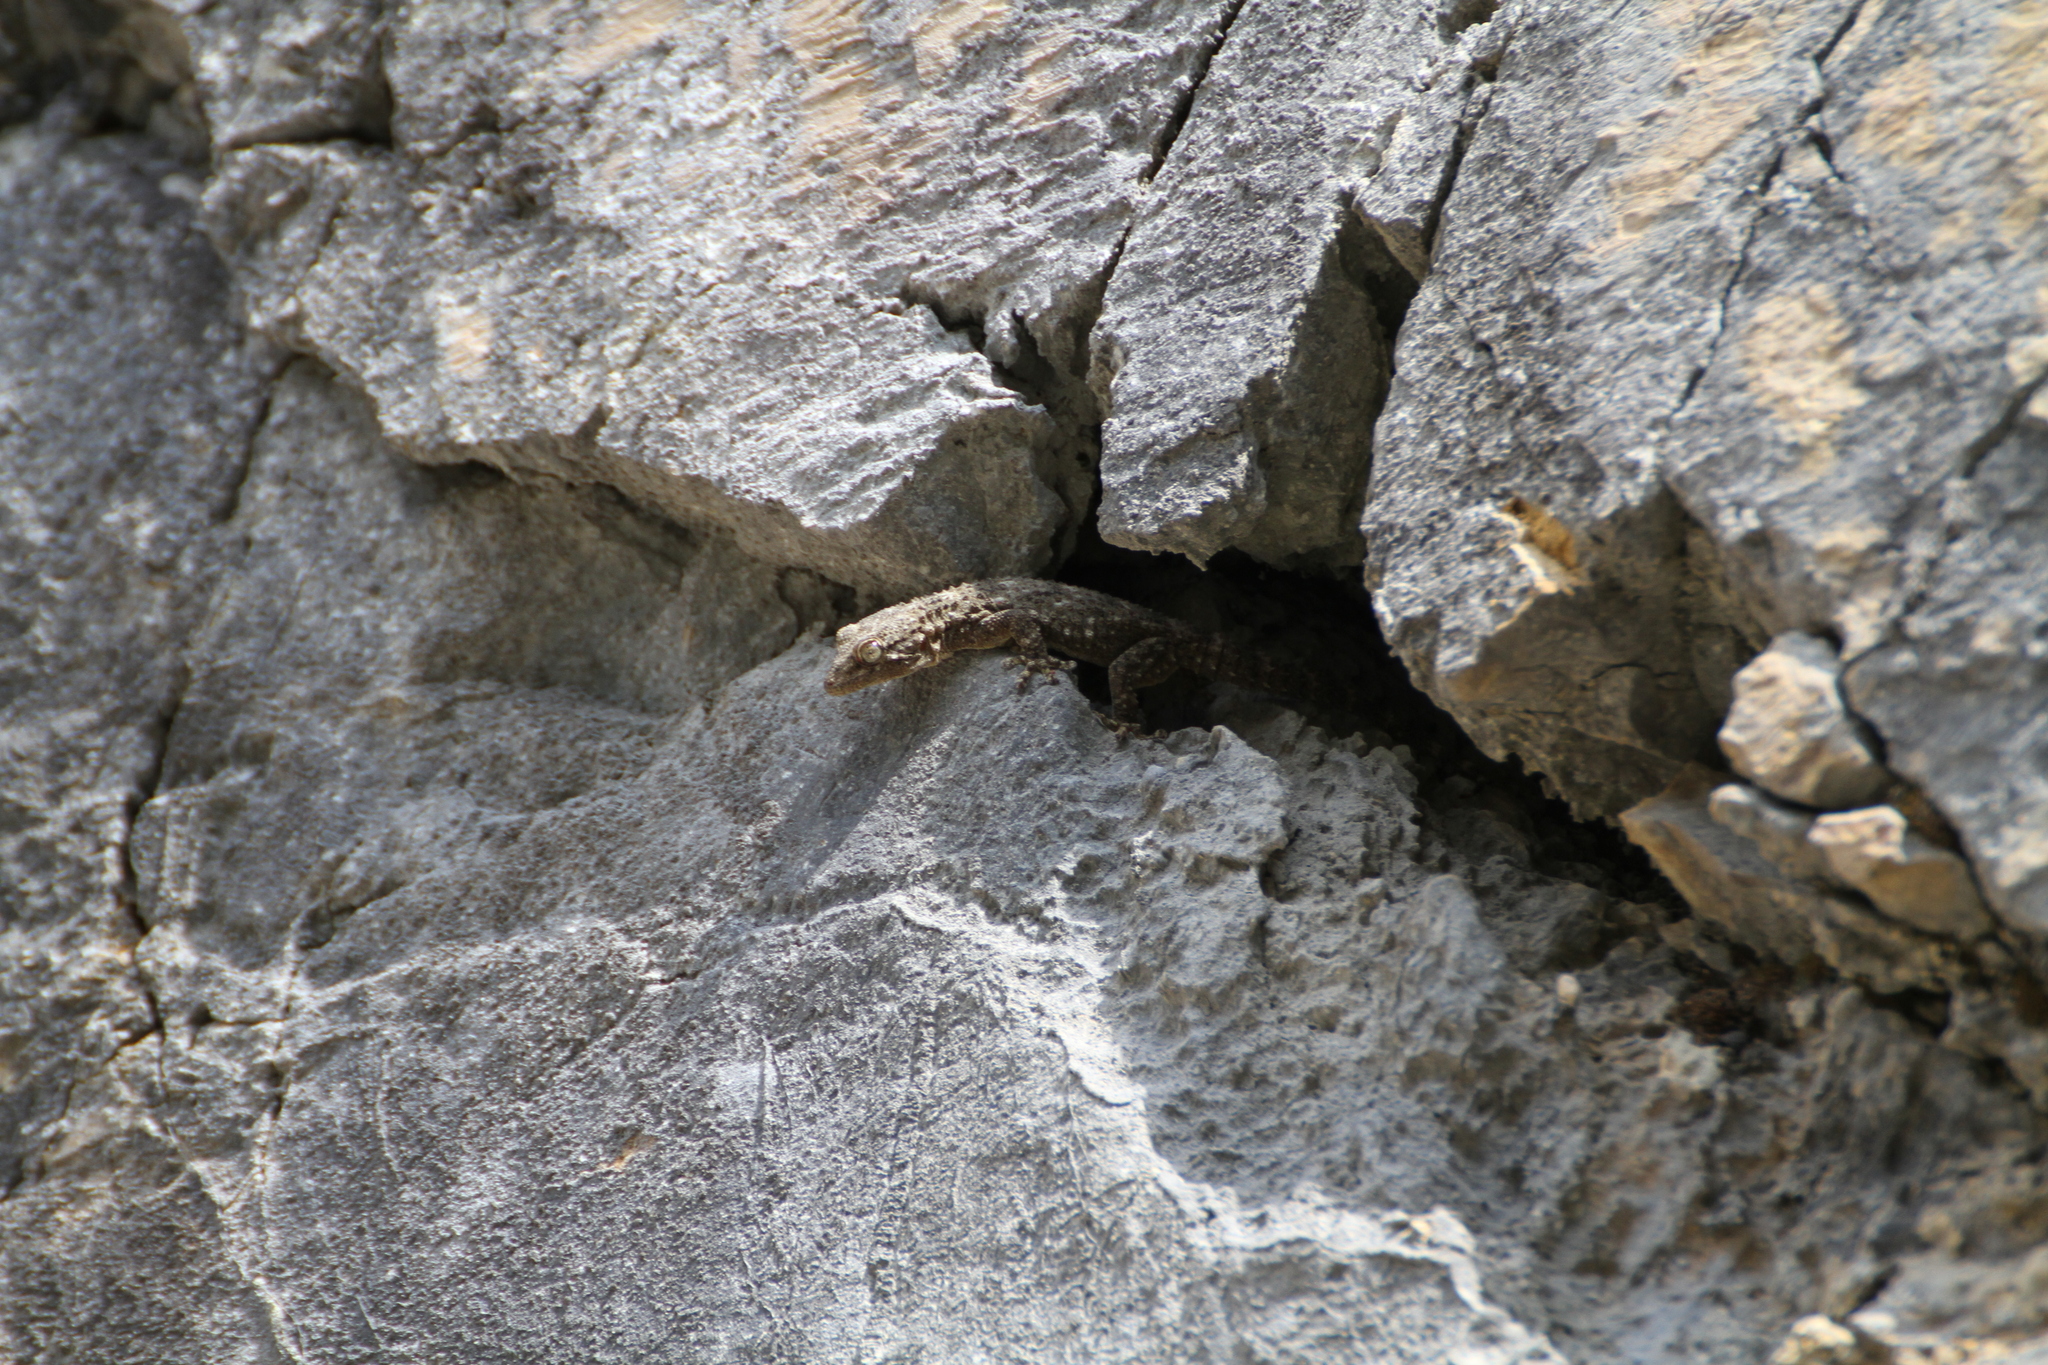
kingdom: Animalia
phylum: Chordata
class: Squamata
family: Phyllodactylidae
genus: Tarentola
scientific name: Tarentola mauritanica
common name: Moorish gecko
